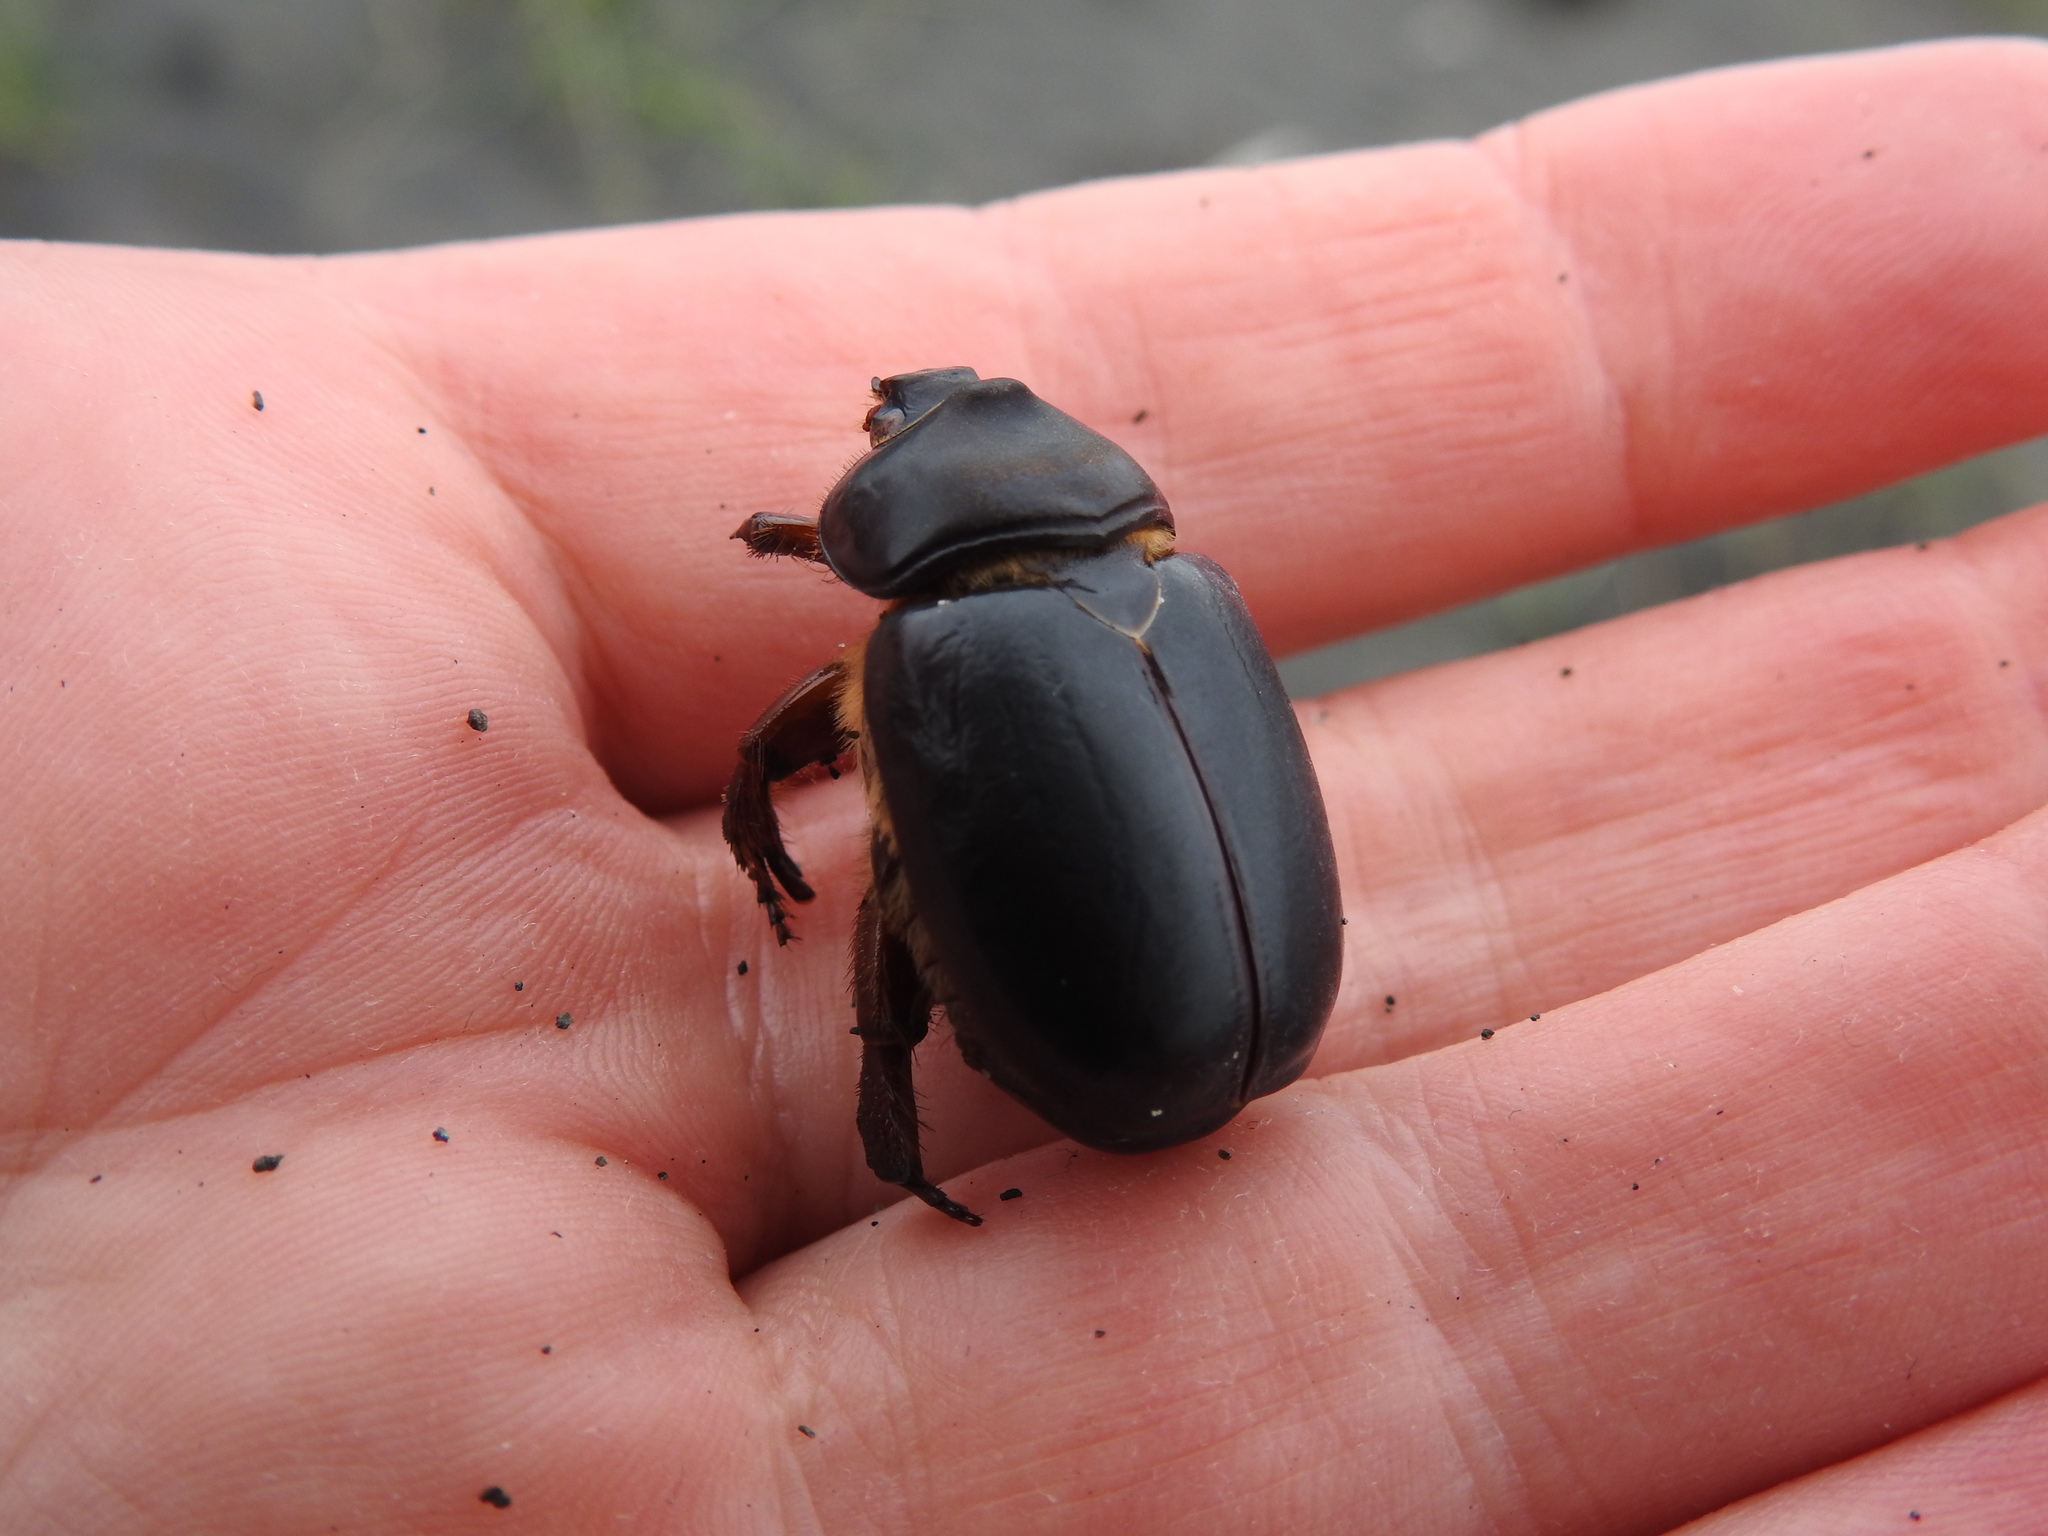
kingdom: Animalia
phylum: Arthropoda
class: Insecta
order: Coleoptera
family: Scarabaeidae
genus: Pericoptus
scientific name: Pericoptus truncatus
